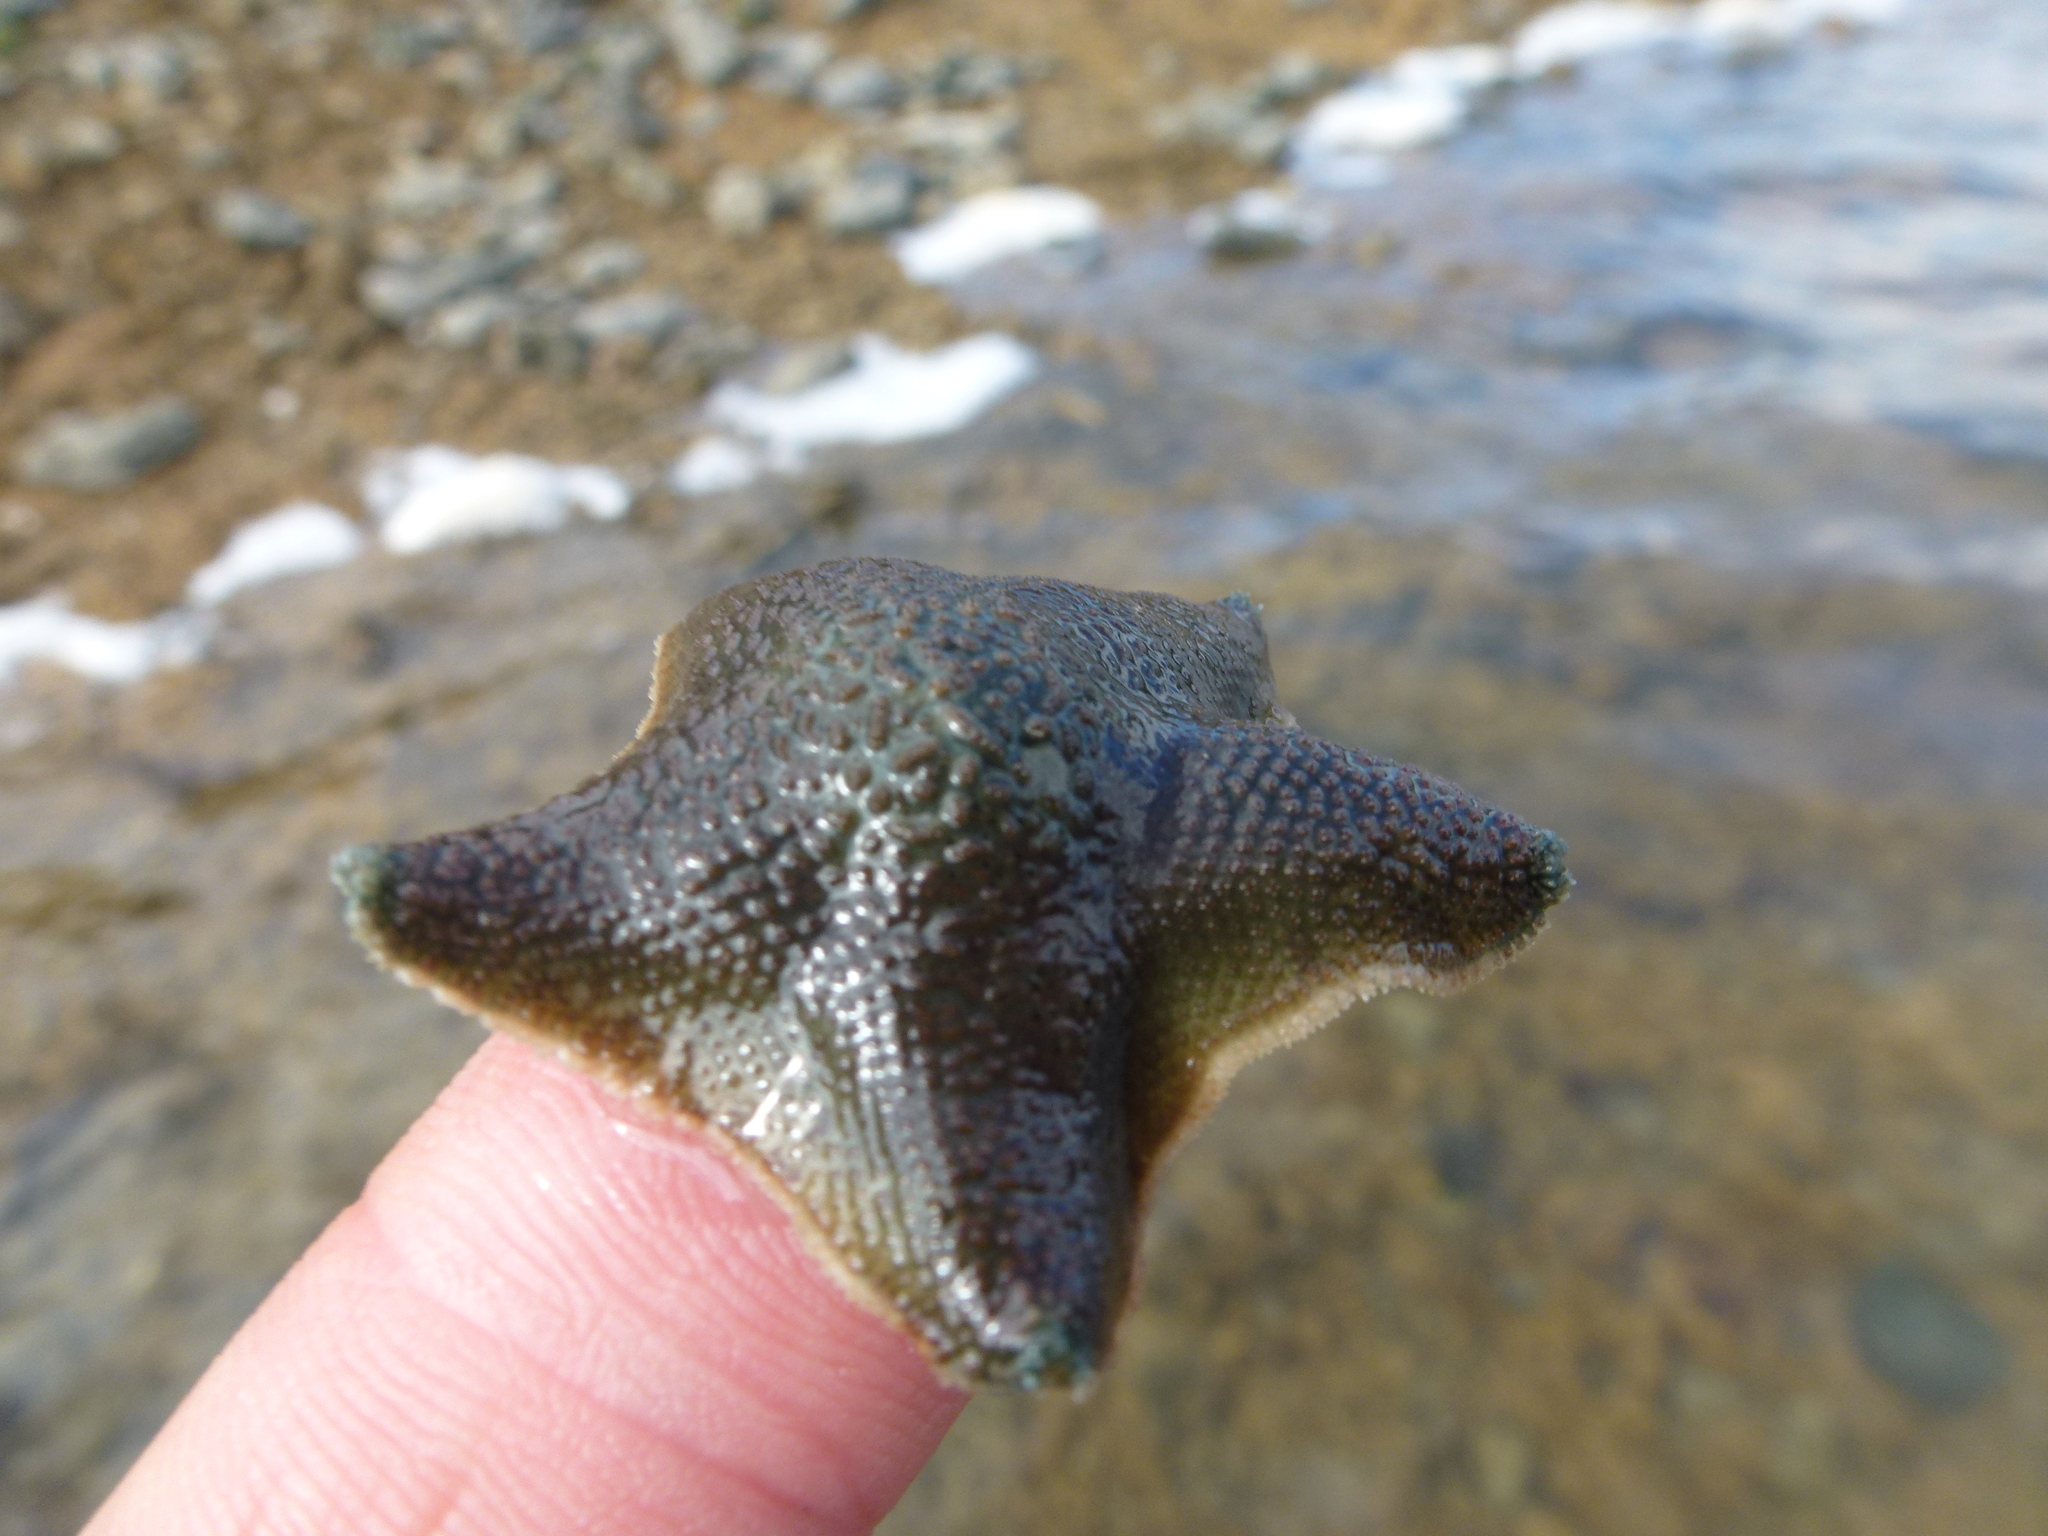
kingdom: Animalia
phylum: Echinodermata
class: Asteroidea
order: Valvatida
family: Asterinidae
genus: Patiriella
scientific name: Patiriella regularis
